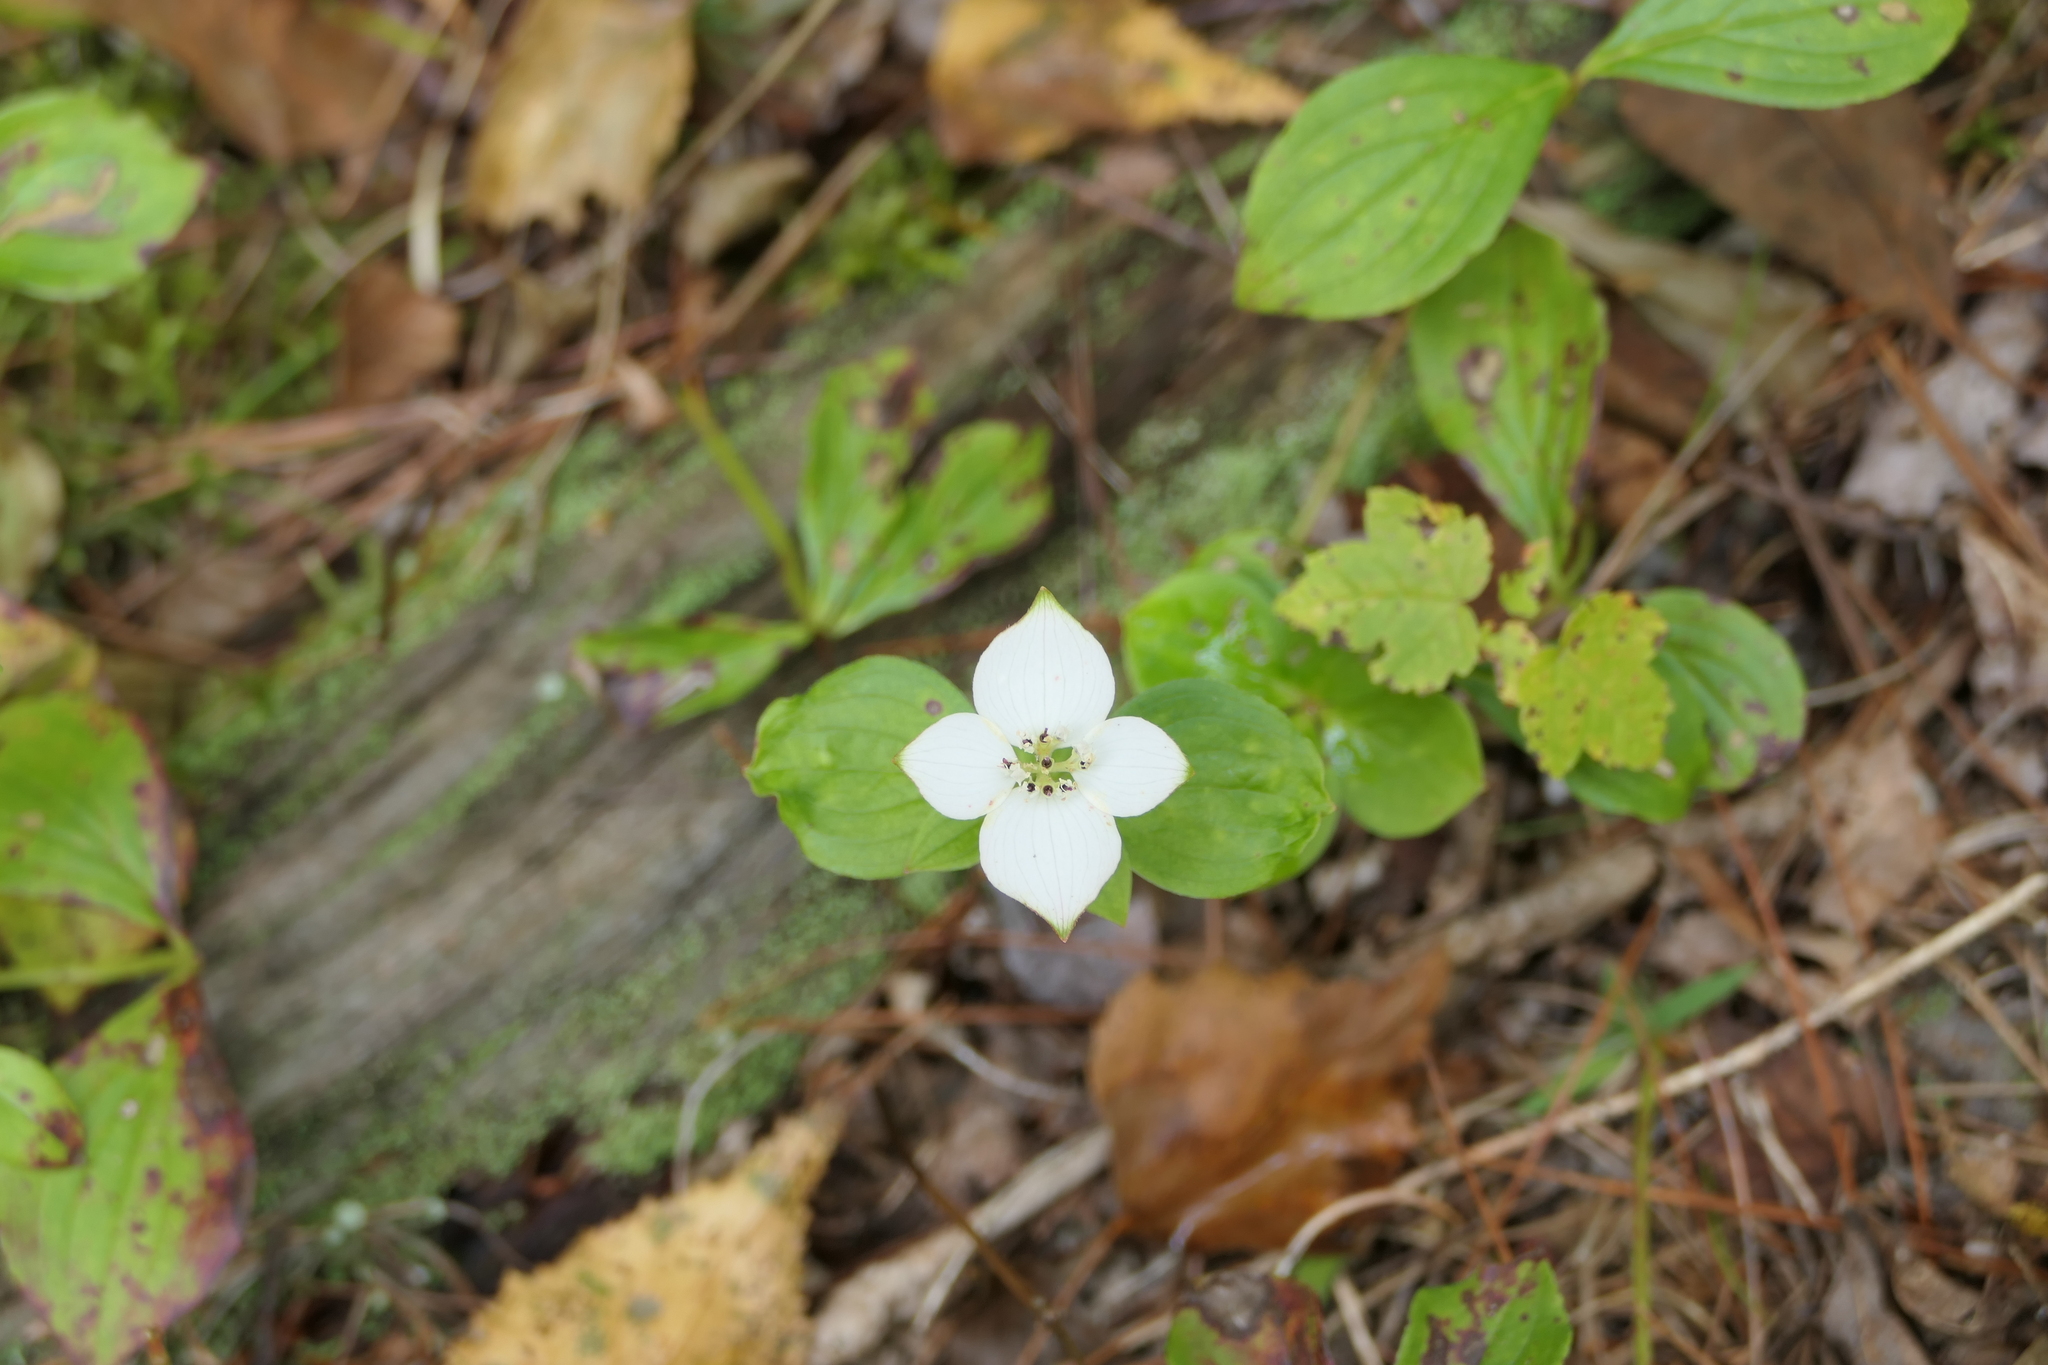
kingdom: Plantae
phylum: Tracheophyta
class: Magnoliopsida
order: Cornales
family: Cornaceae
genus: Cornus
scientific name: Cornus canadensis
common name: Creeping dogwood
